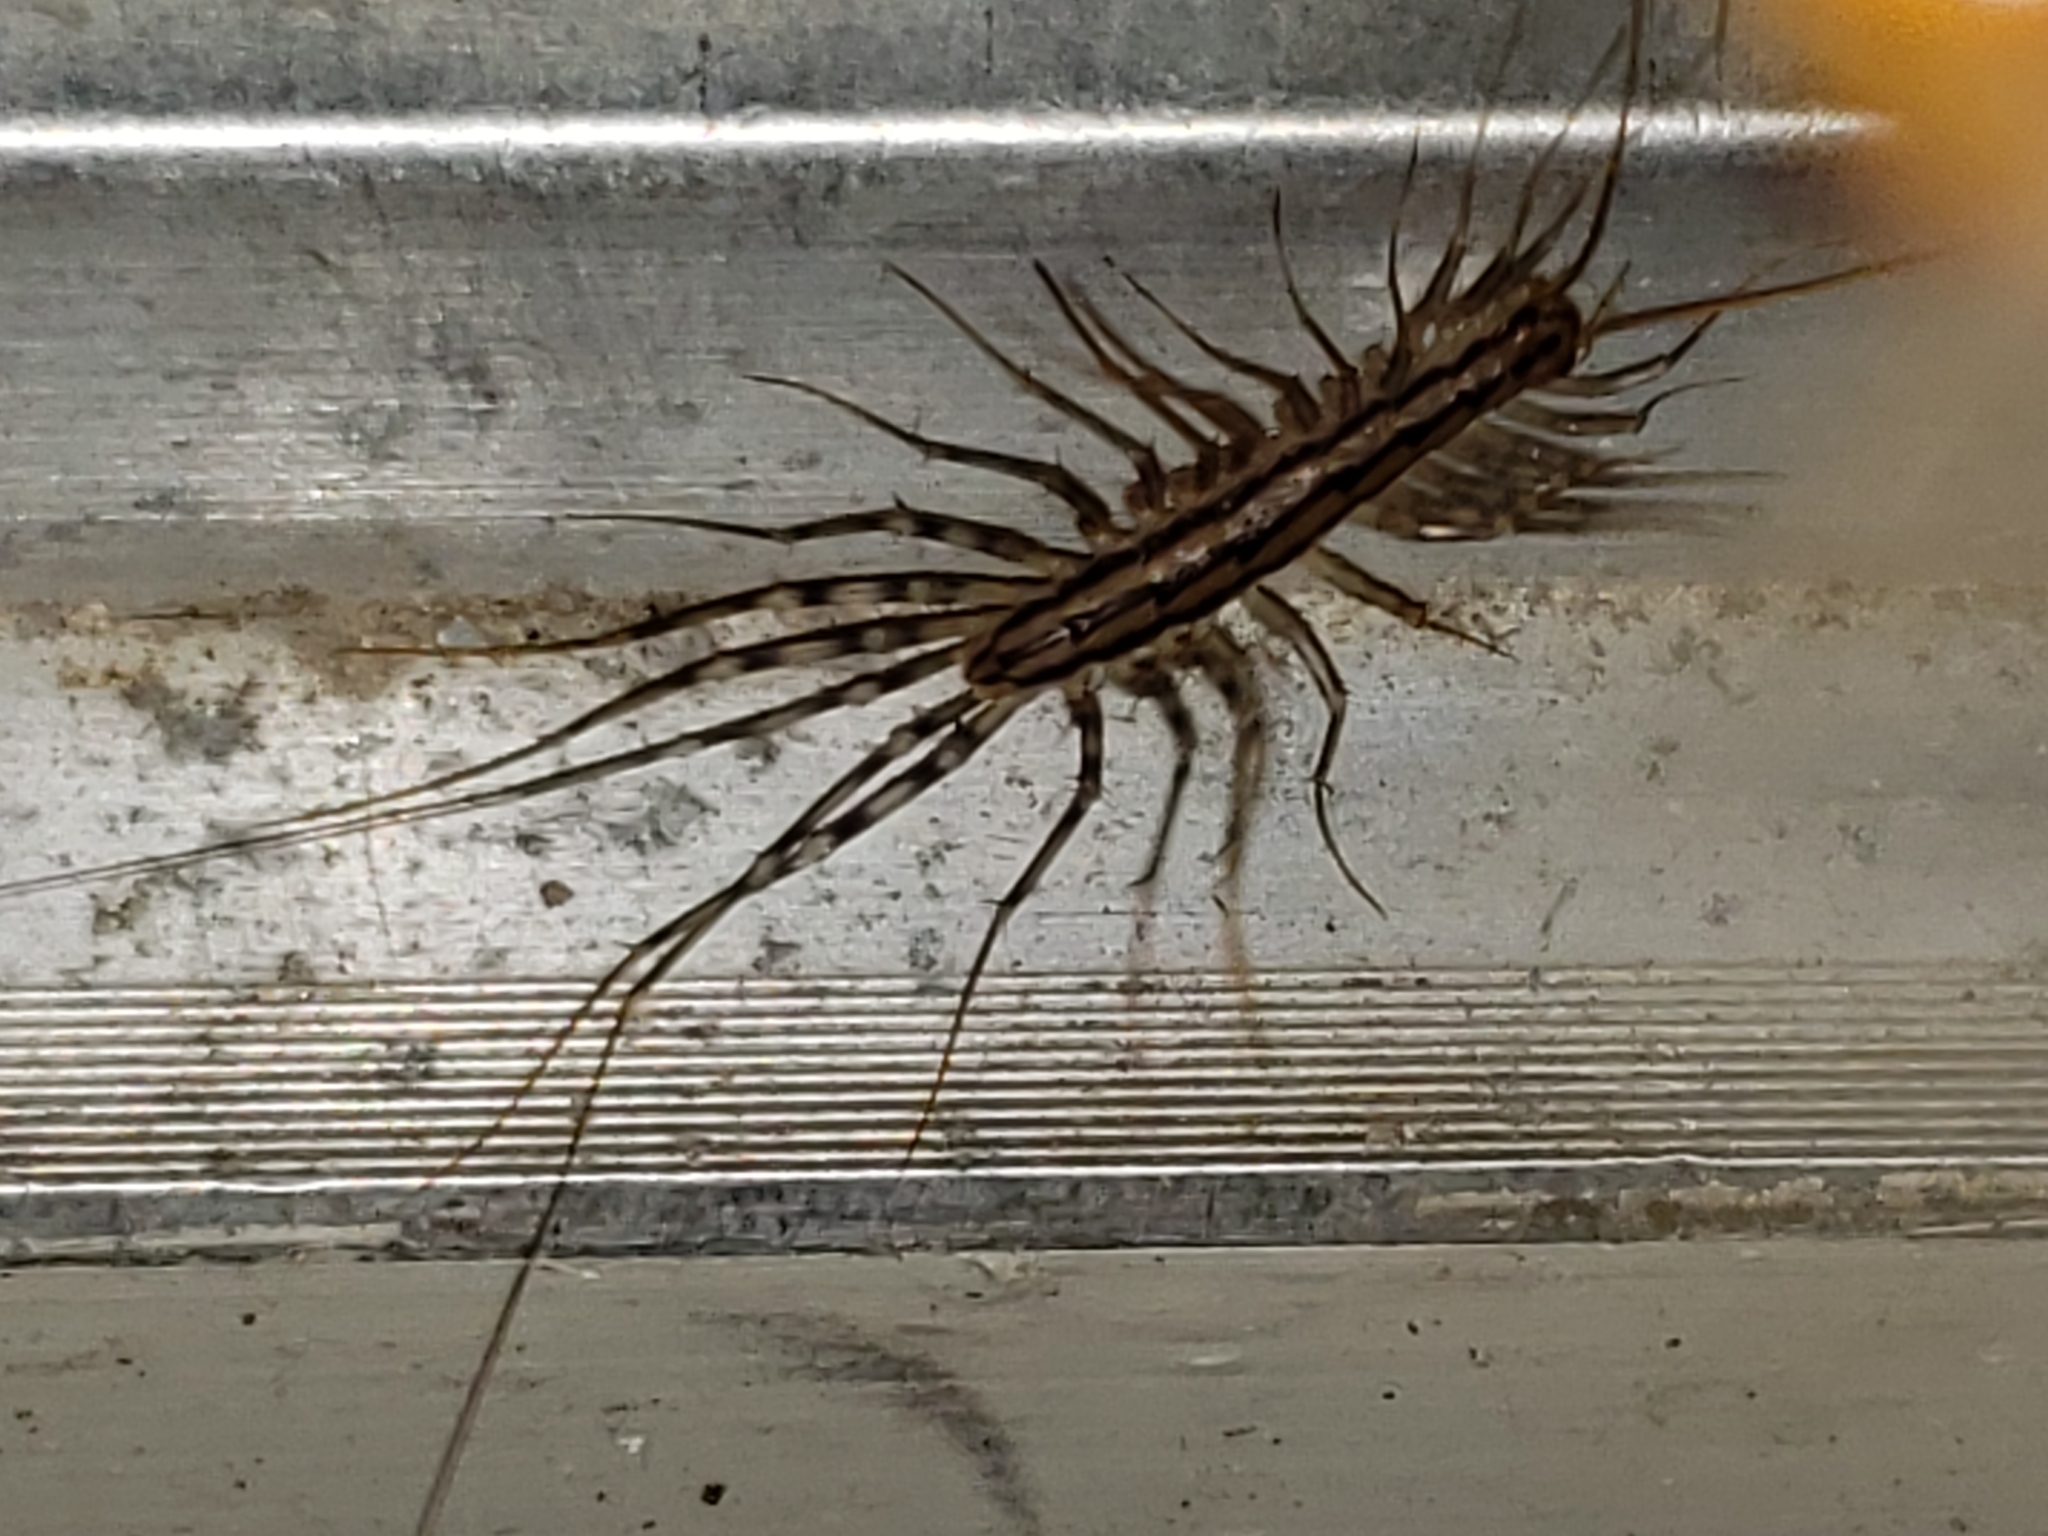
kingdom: Animalia
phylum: Arthropoda
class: Chilopoda
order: Scutigeromorpha
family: Scutigeridae
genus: Scutigera
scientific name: Scutigera coleoptrata
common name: House centipede
